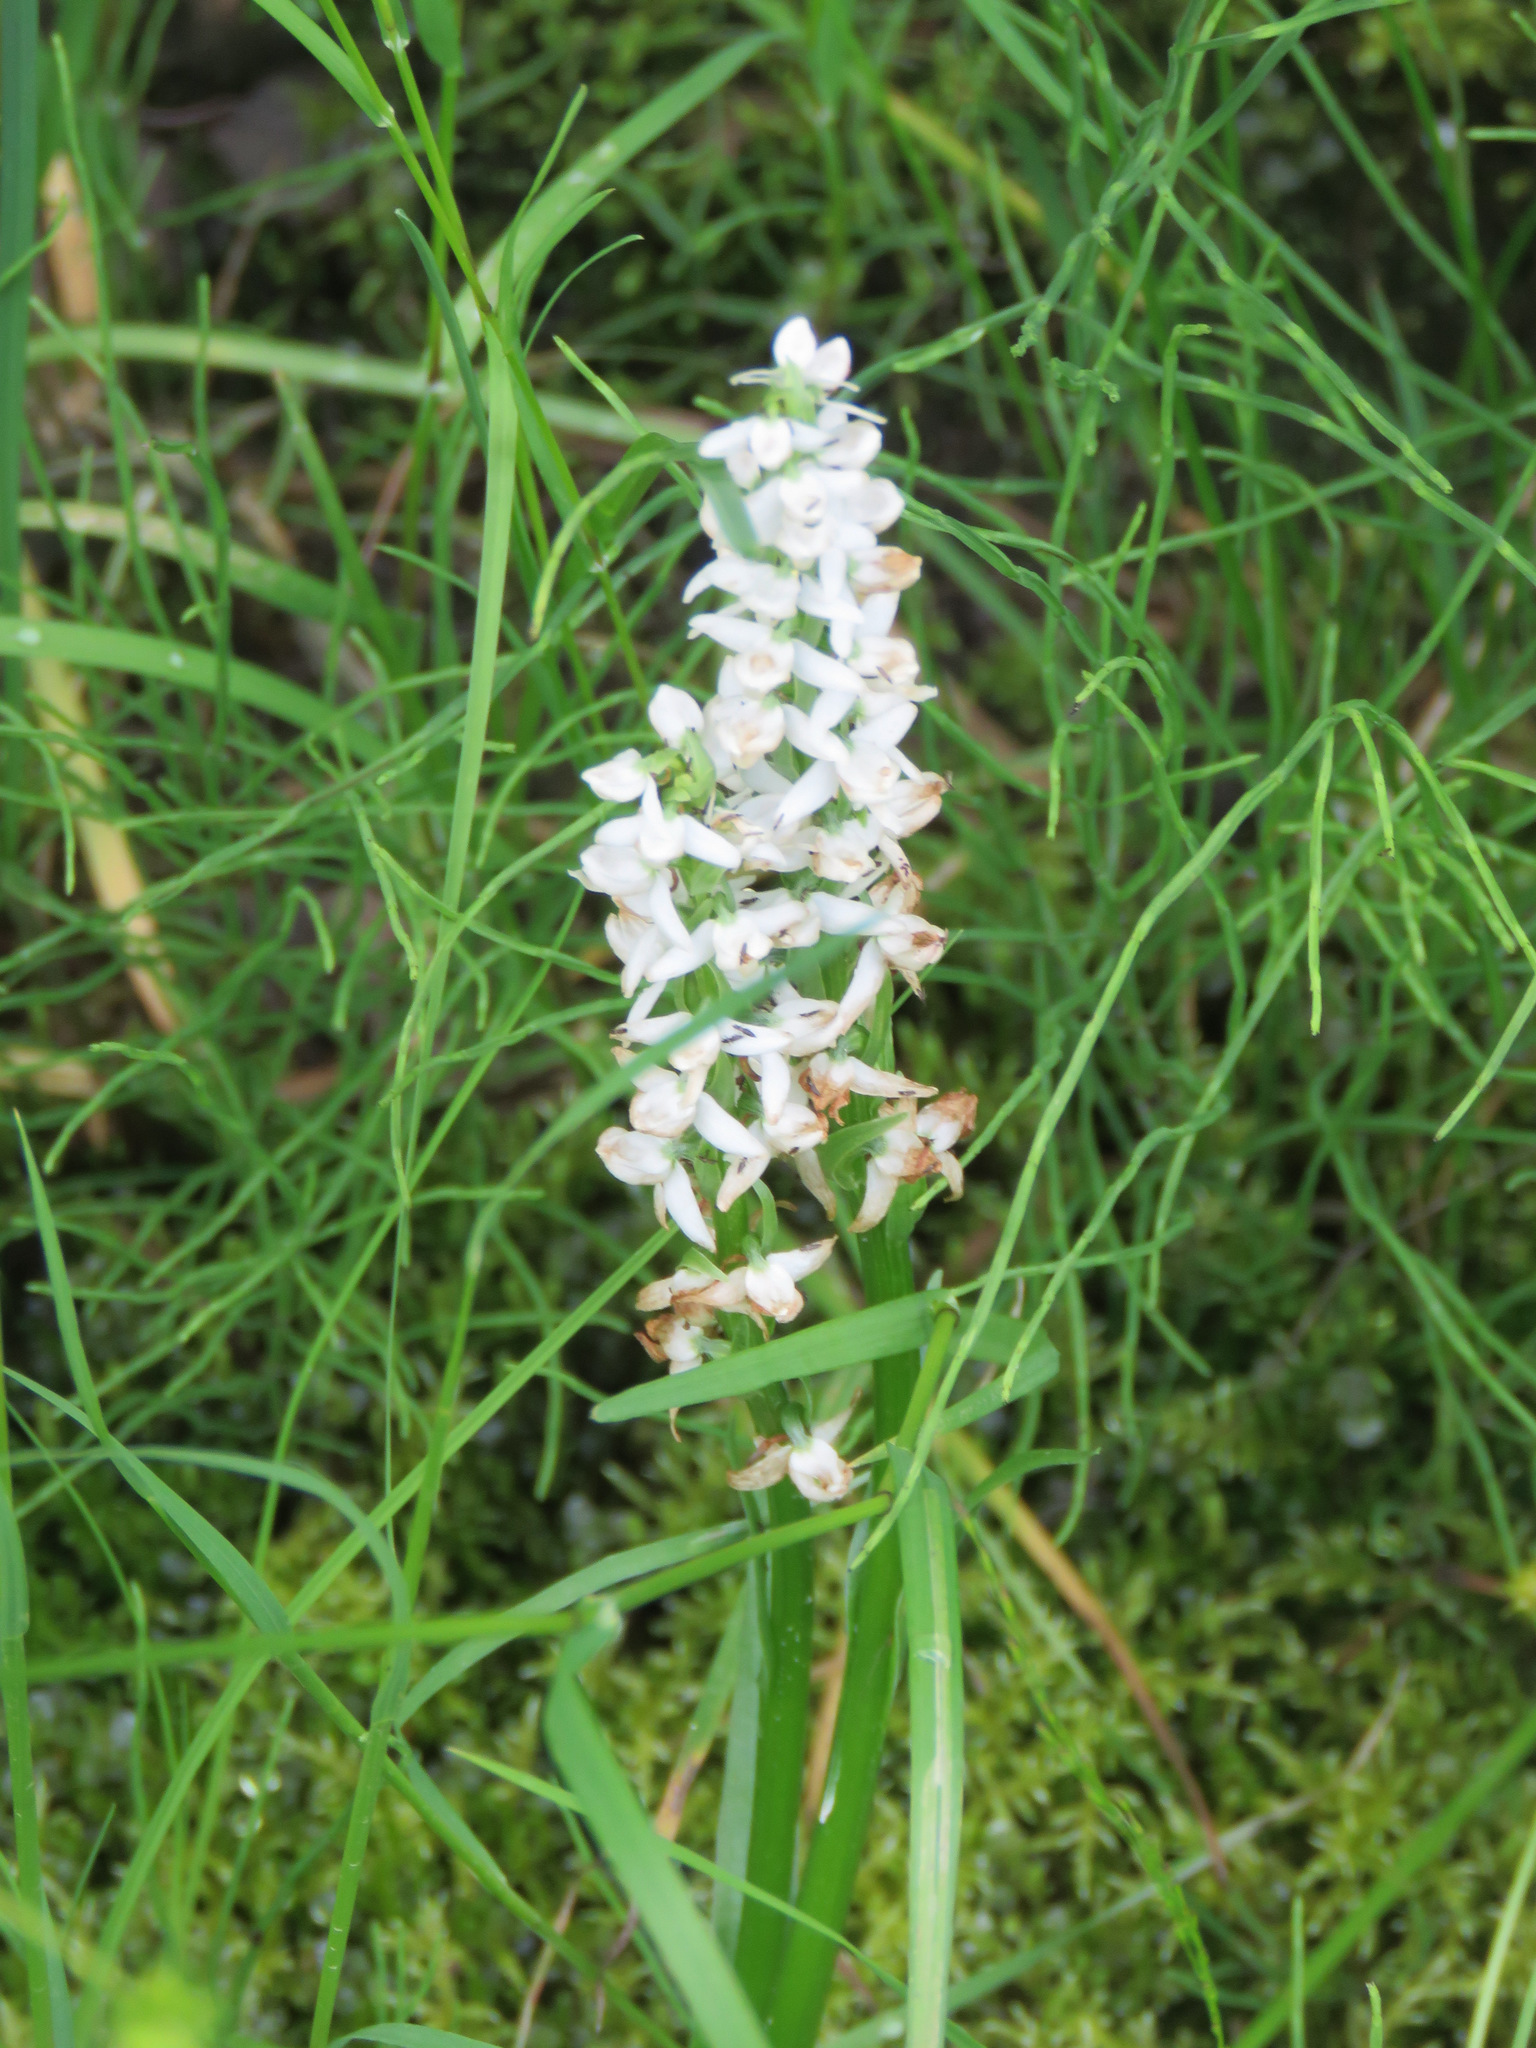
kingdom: Plantae
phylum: Tracheophyta
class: Liliopsida
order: Asparagales
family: Orchidaceae
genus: Platanthera
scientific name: Platanthera dilatata
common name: Bog candles
